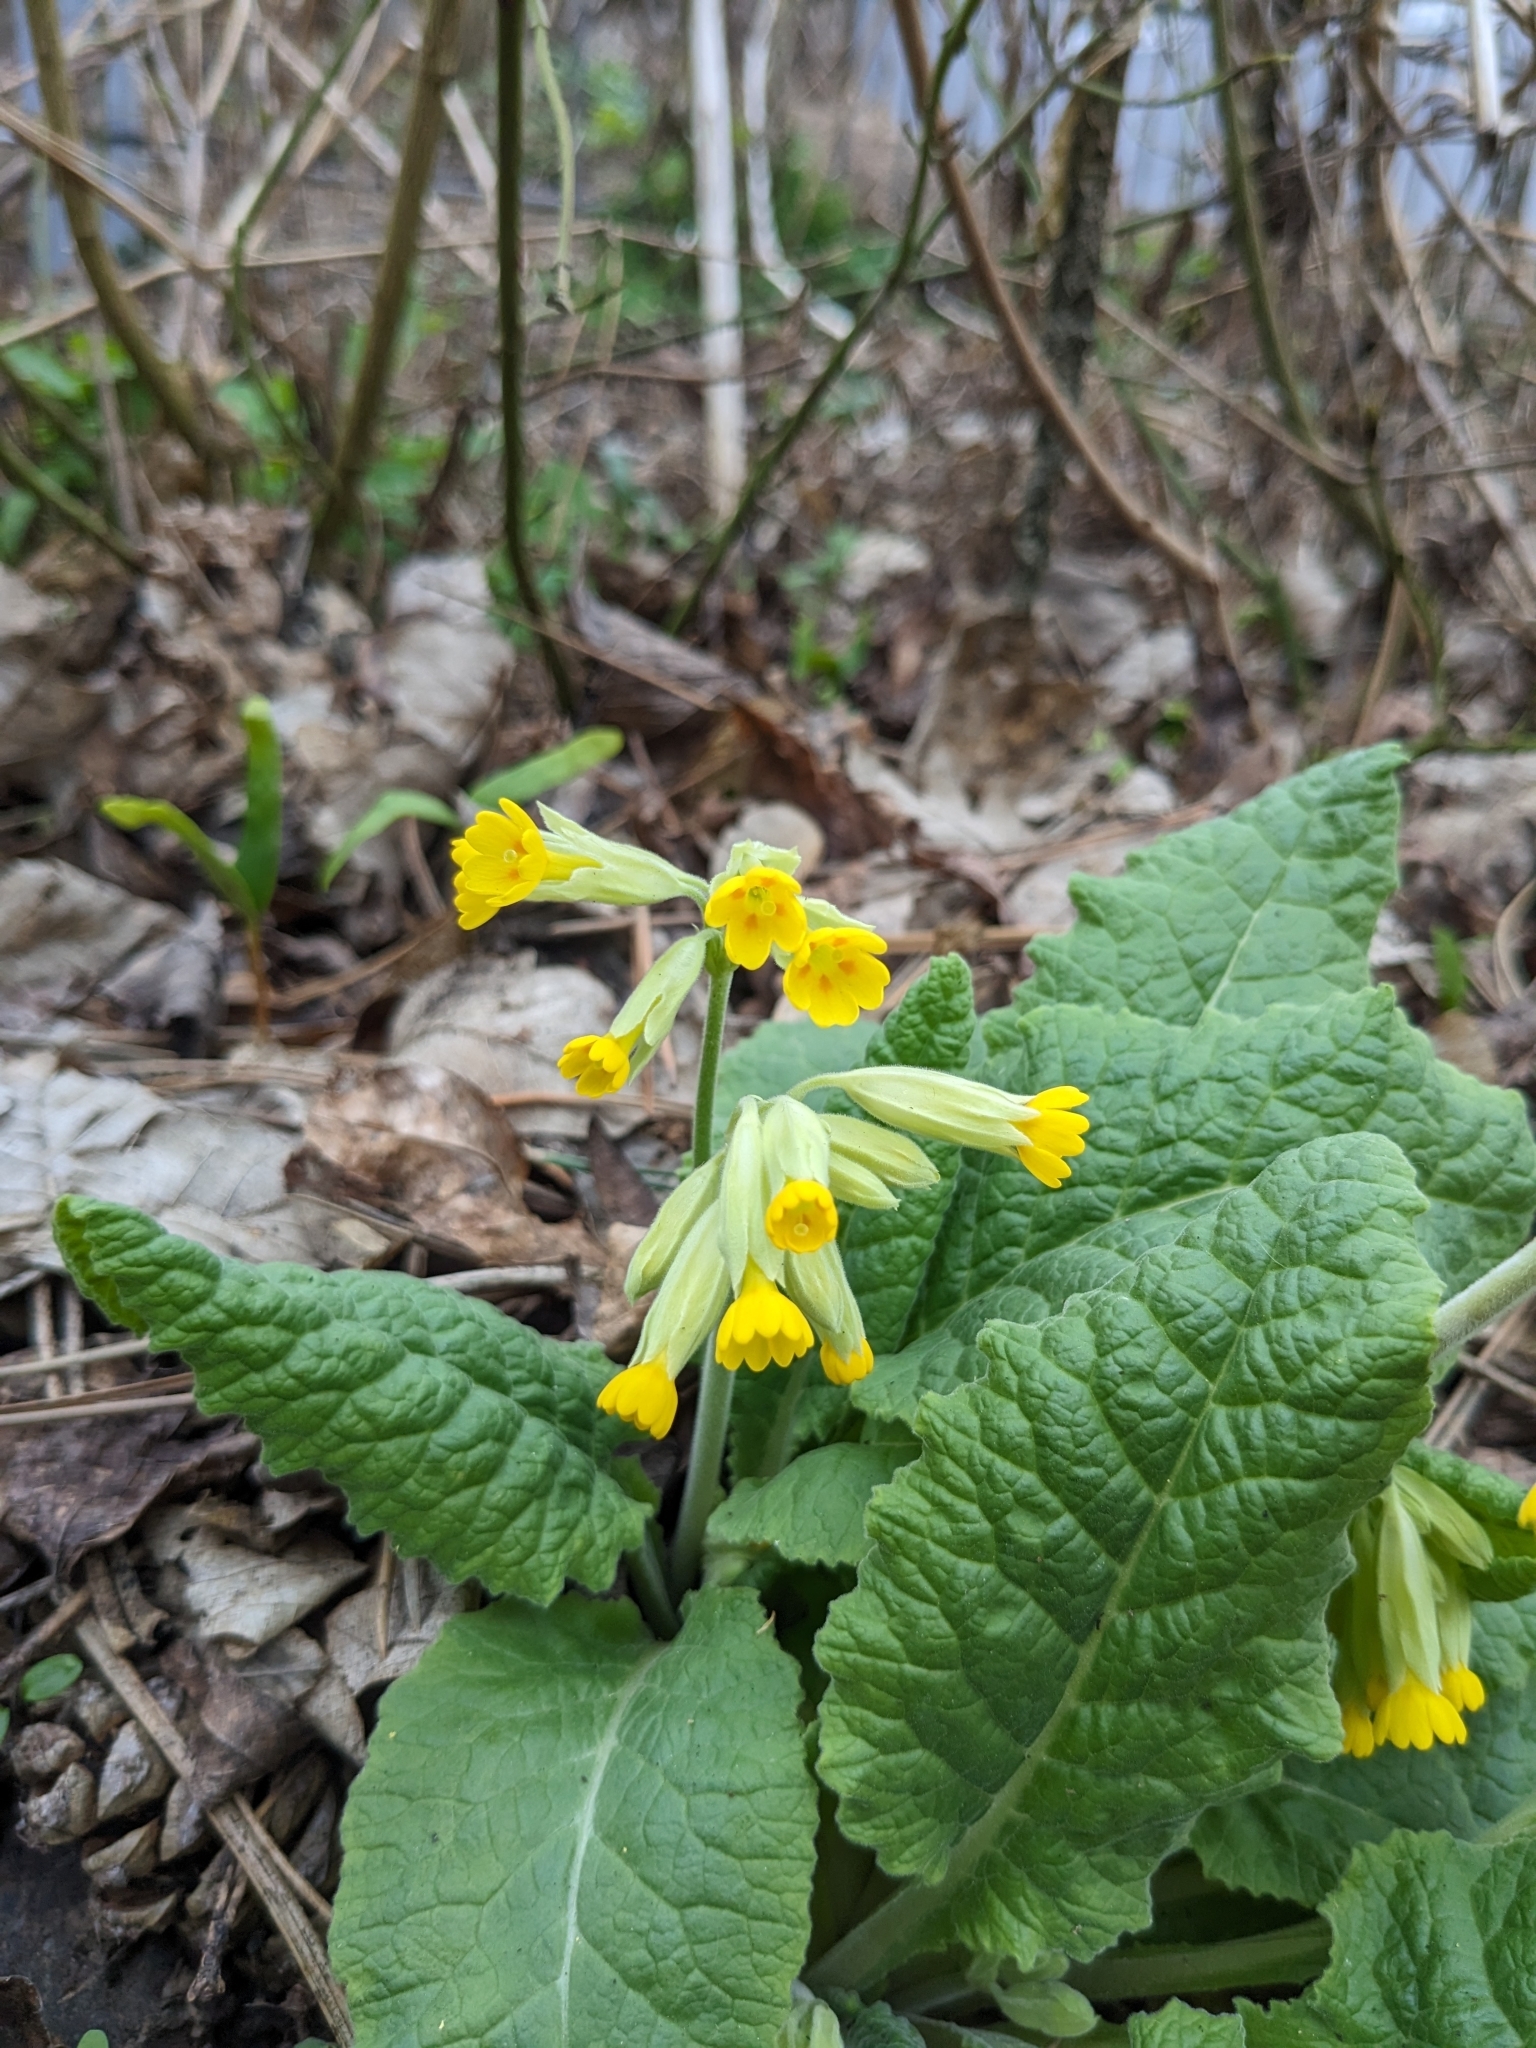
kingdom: Plantae
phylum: Tracheophyta
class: Magnoliopsida
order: Ericales
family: Primulaceae
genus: Primula
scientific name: Primula veris
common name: Cowslip
